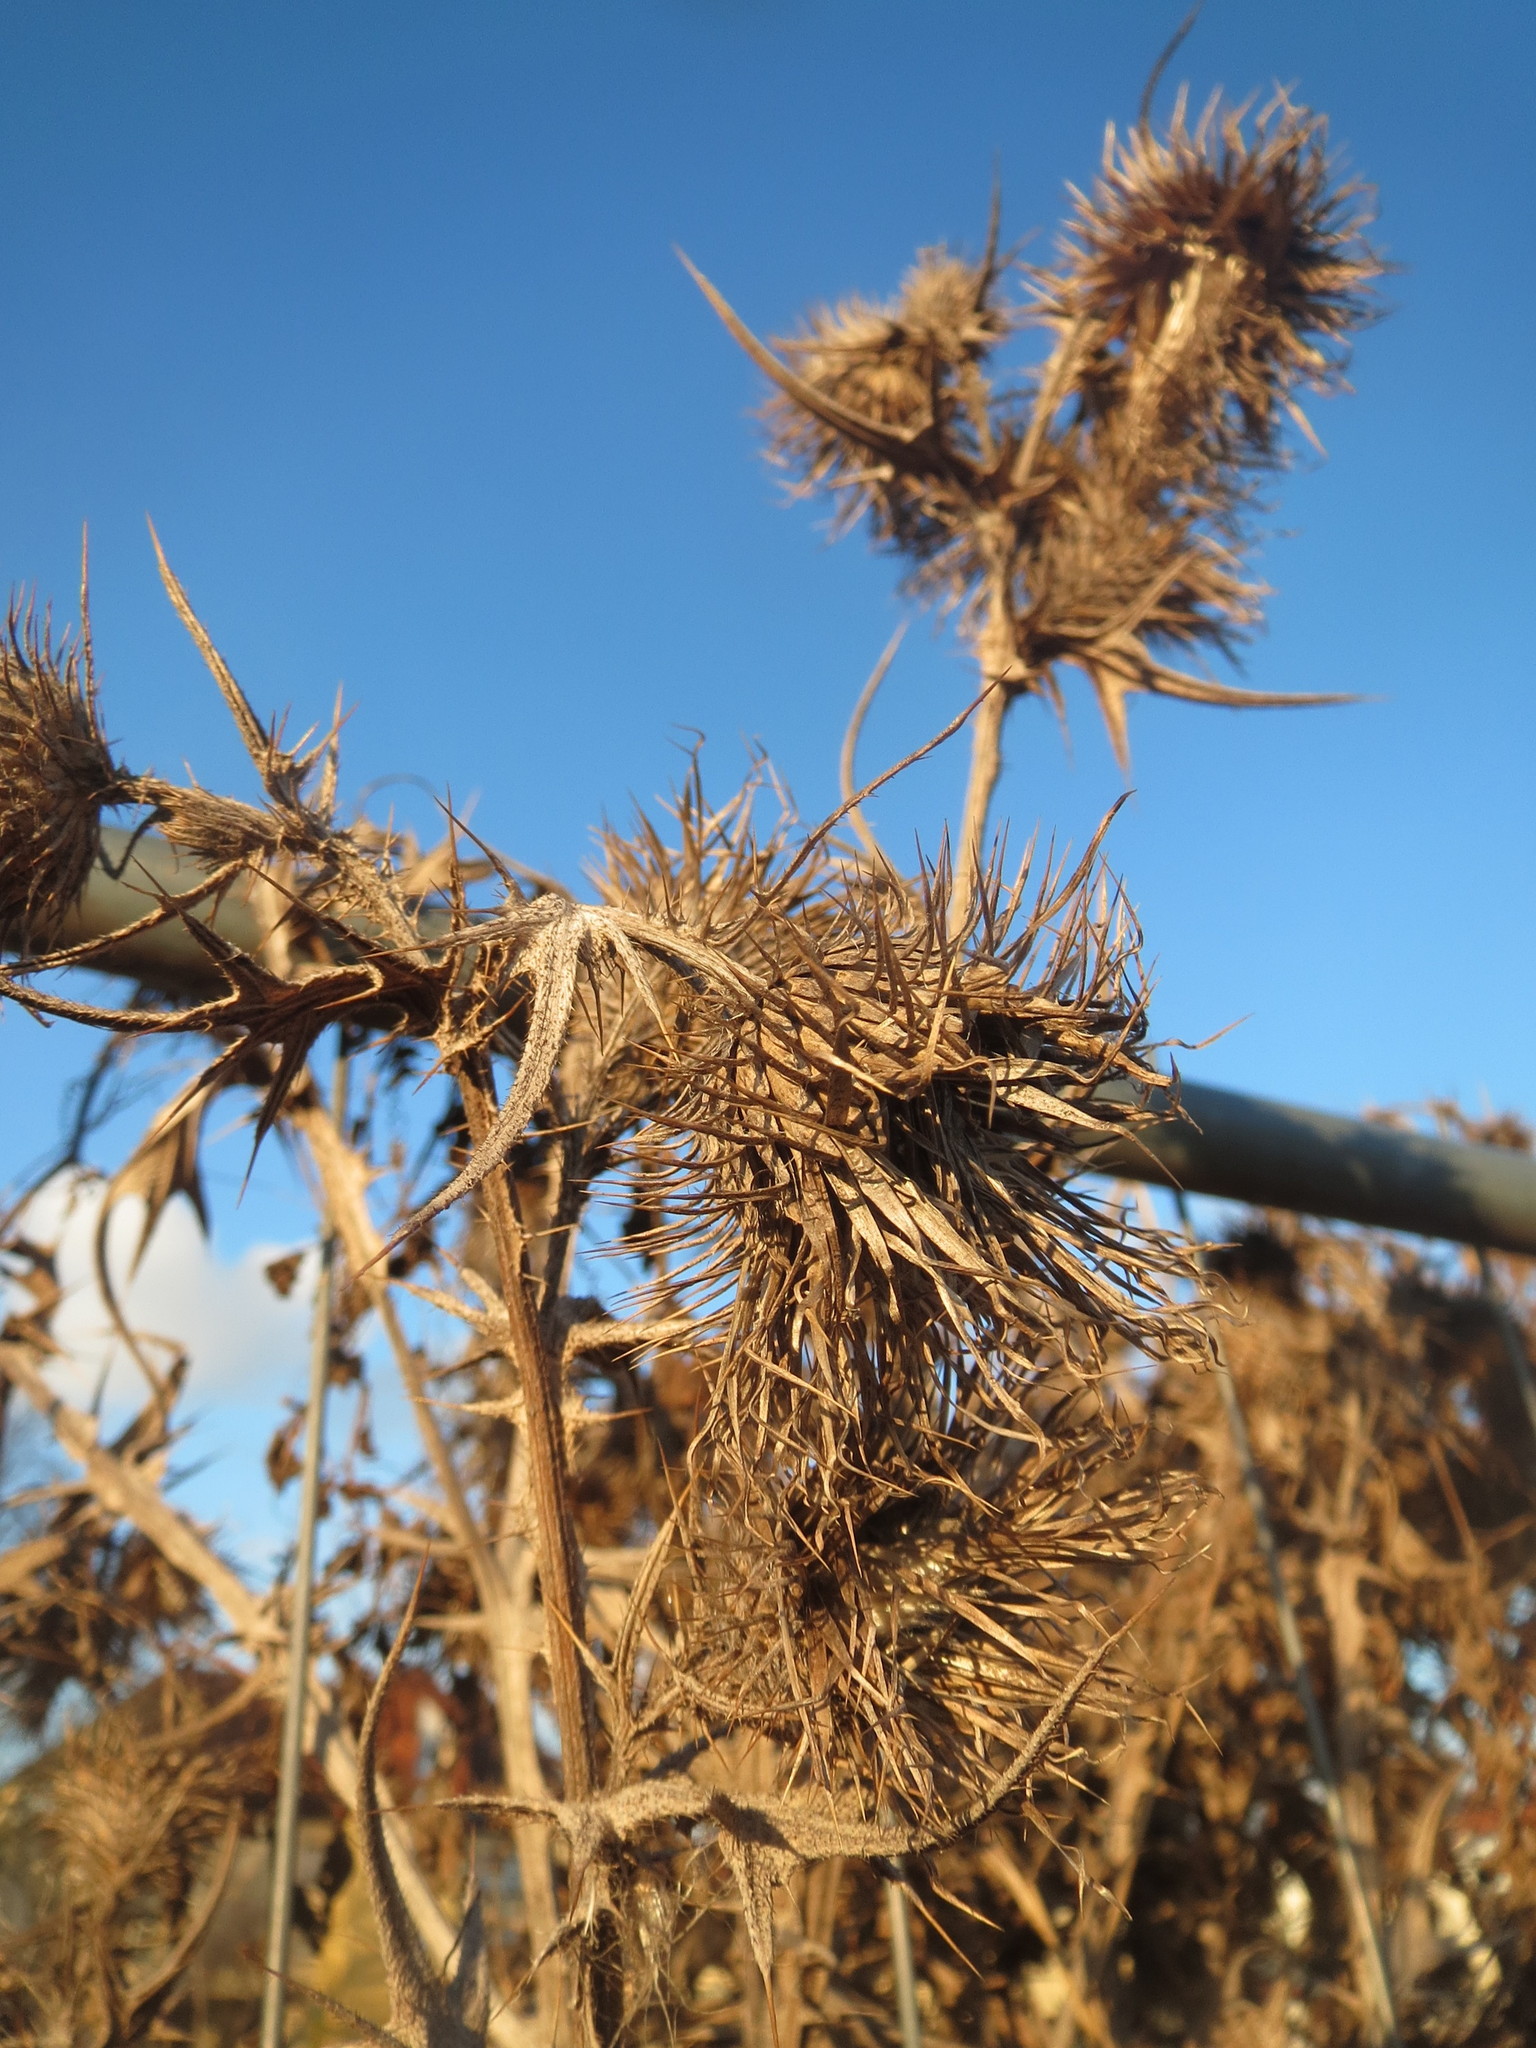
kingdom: Plantae
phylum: Tracheophyta
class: Magnoliopsida
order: Asterales
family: Asteraceae
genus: Cirsium
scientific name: Cirsium vulgare
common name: Bull thistle
